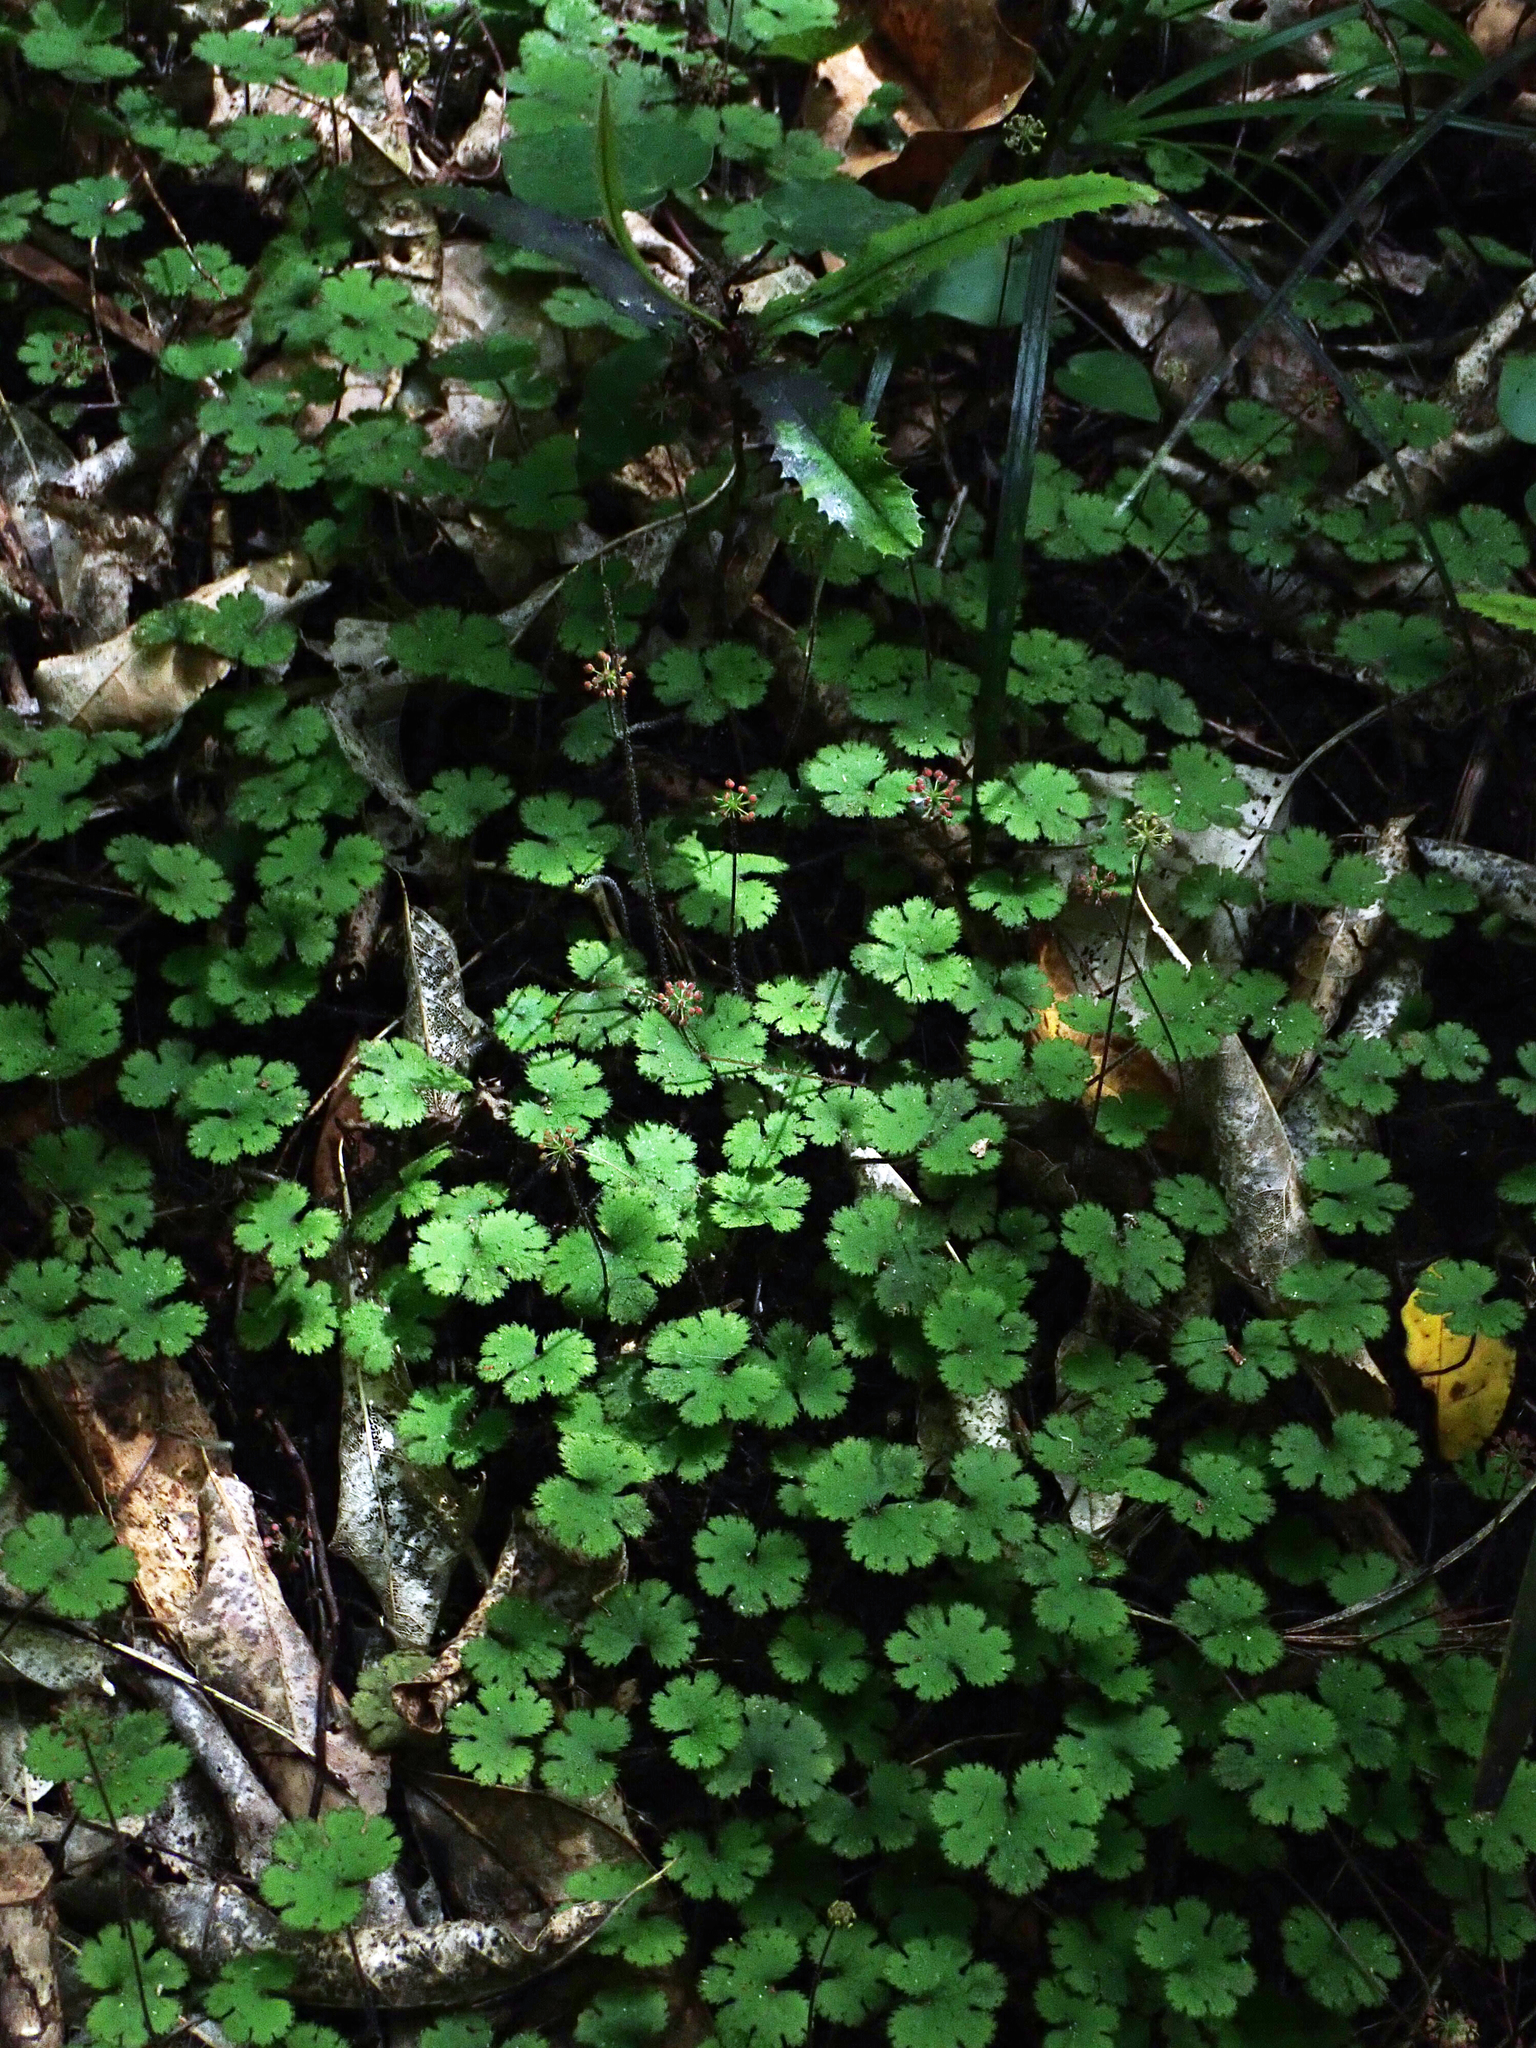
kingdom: Plantae
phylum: Tracheophyta
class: Magnoliopsida
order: Apiales
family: Araliaceae
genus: Hydrocotyle
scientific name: Hydrocotyle elongata
